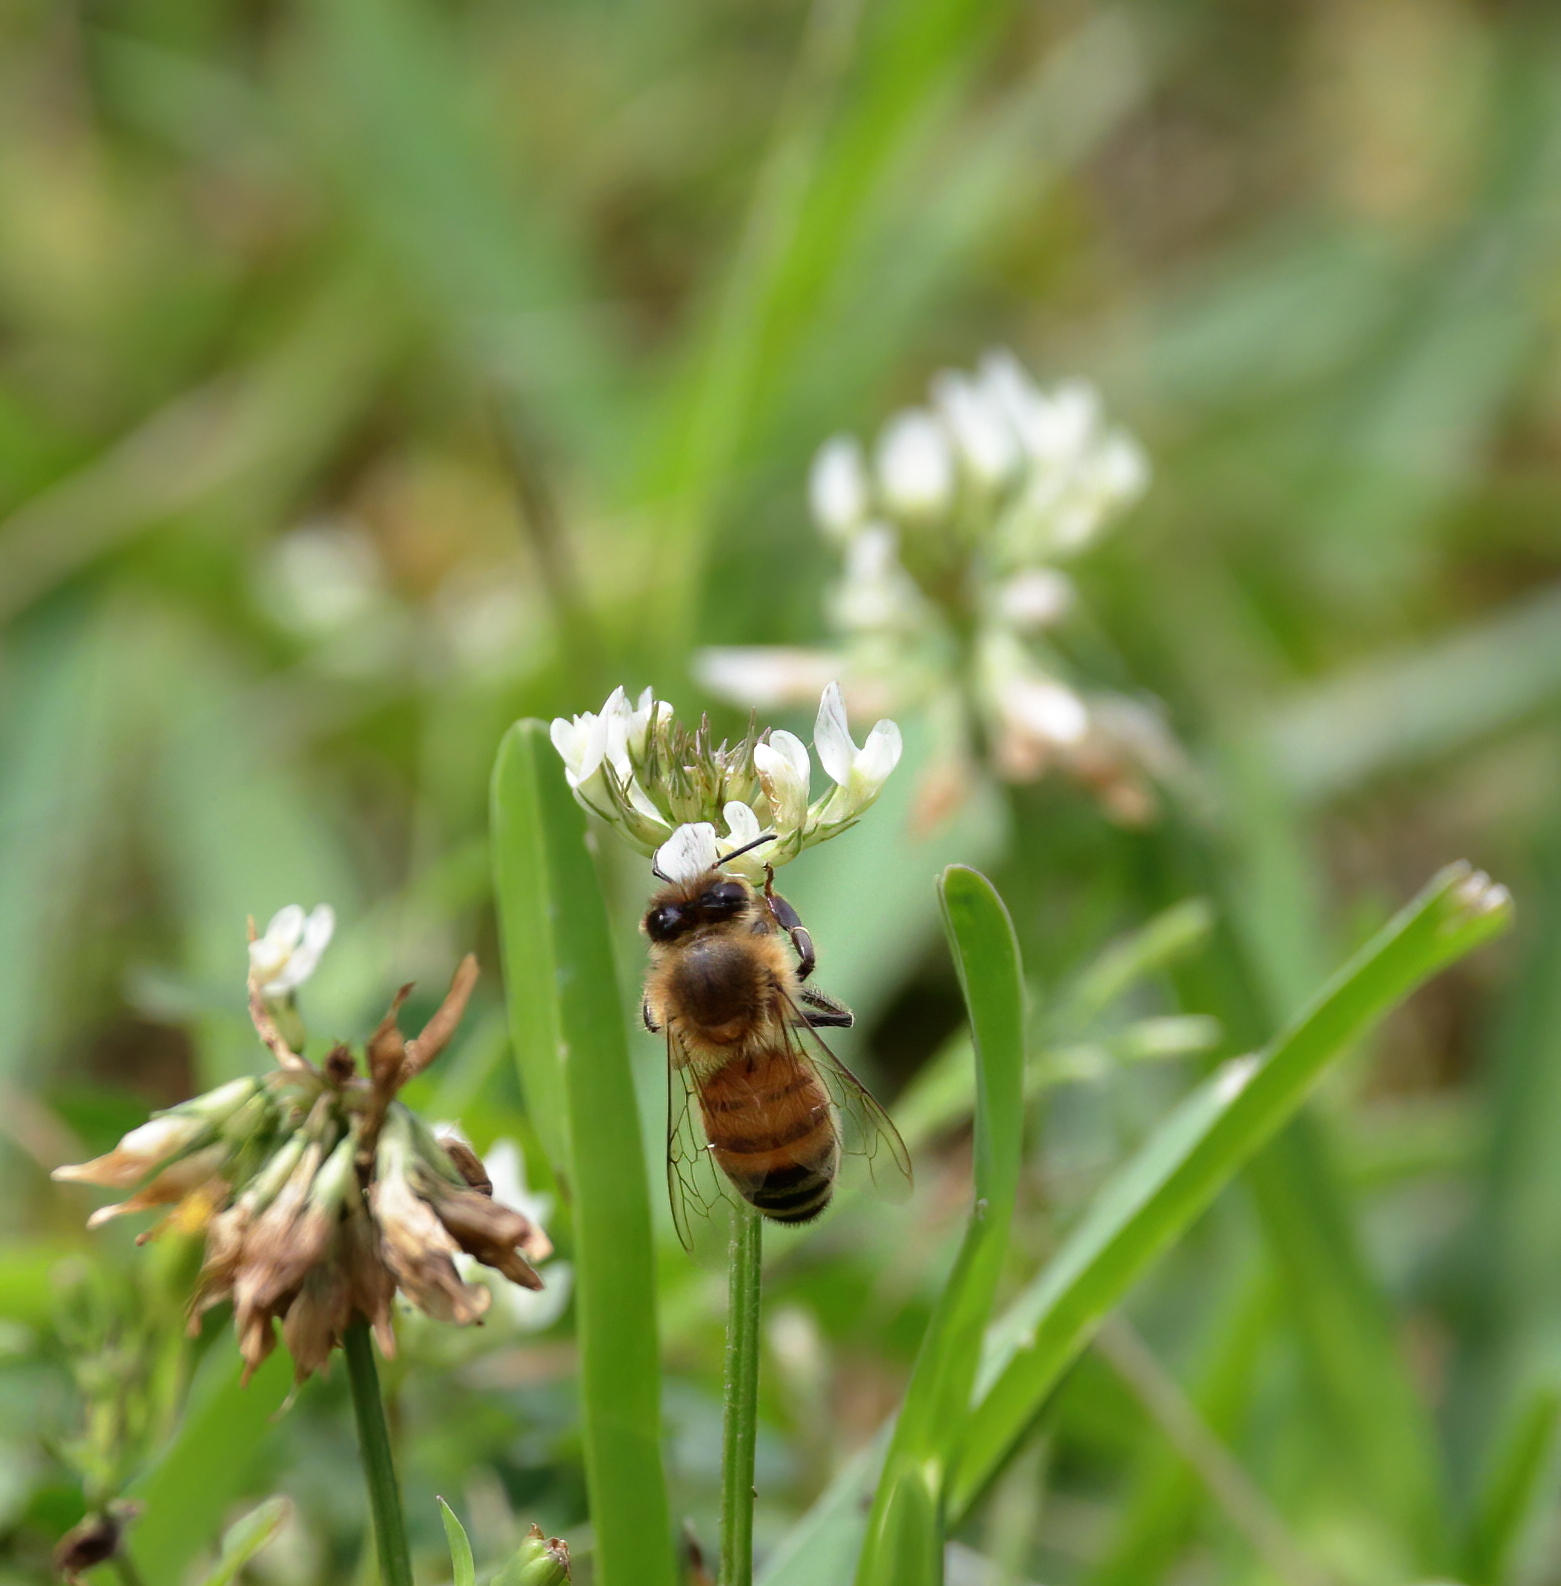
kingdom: Animalia
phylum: Arthropoda
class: Insecta
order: Hymenoptera
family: Apidae
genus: Apis
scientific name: Apis mellifera
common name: Honey bee
